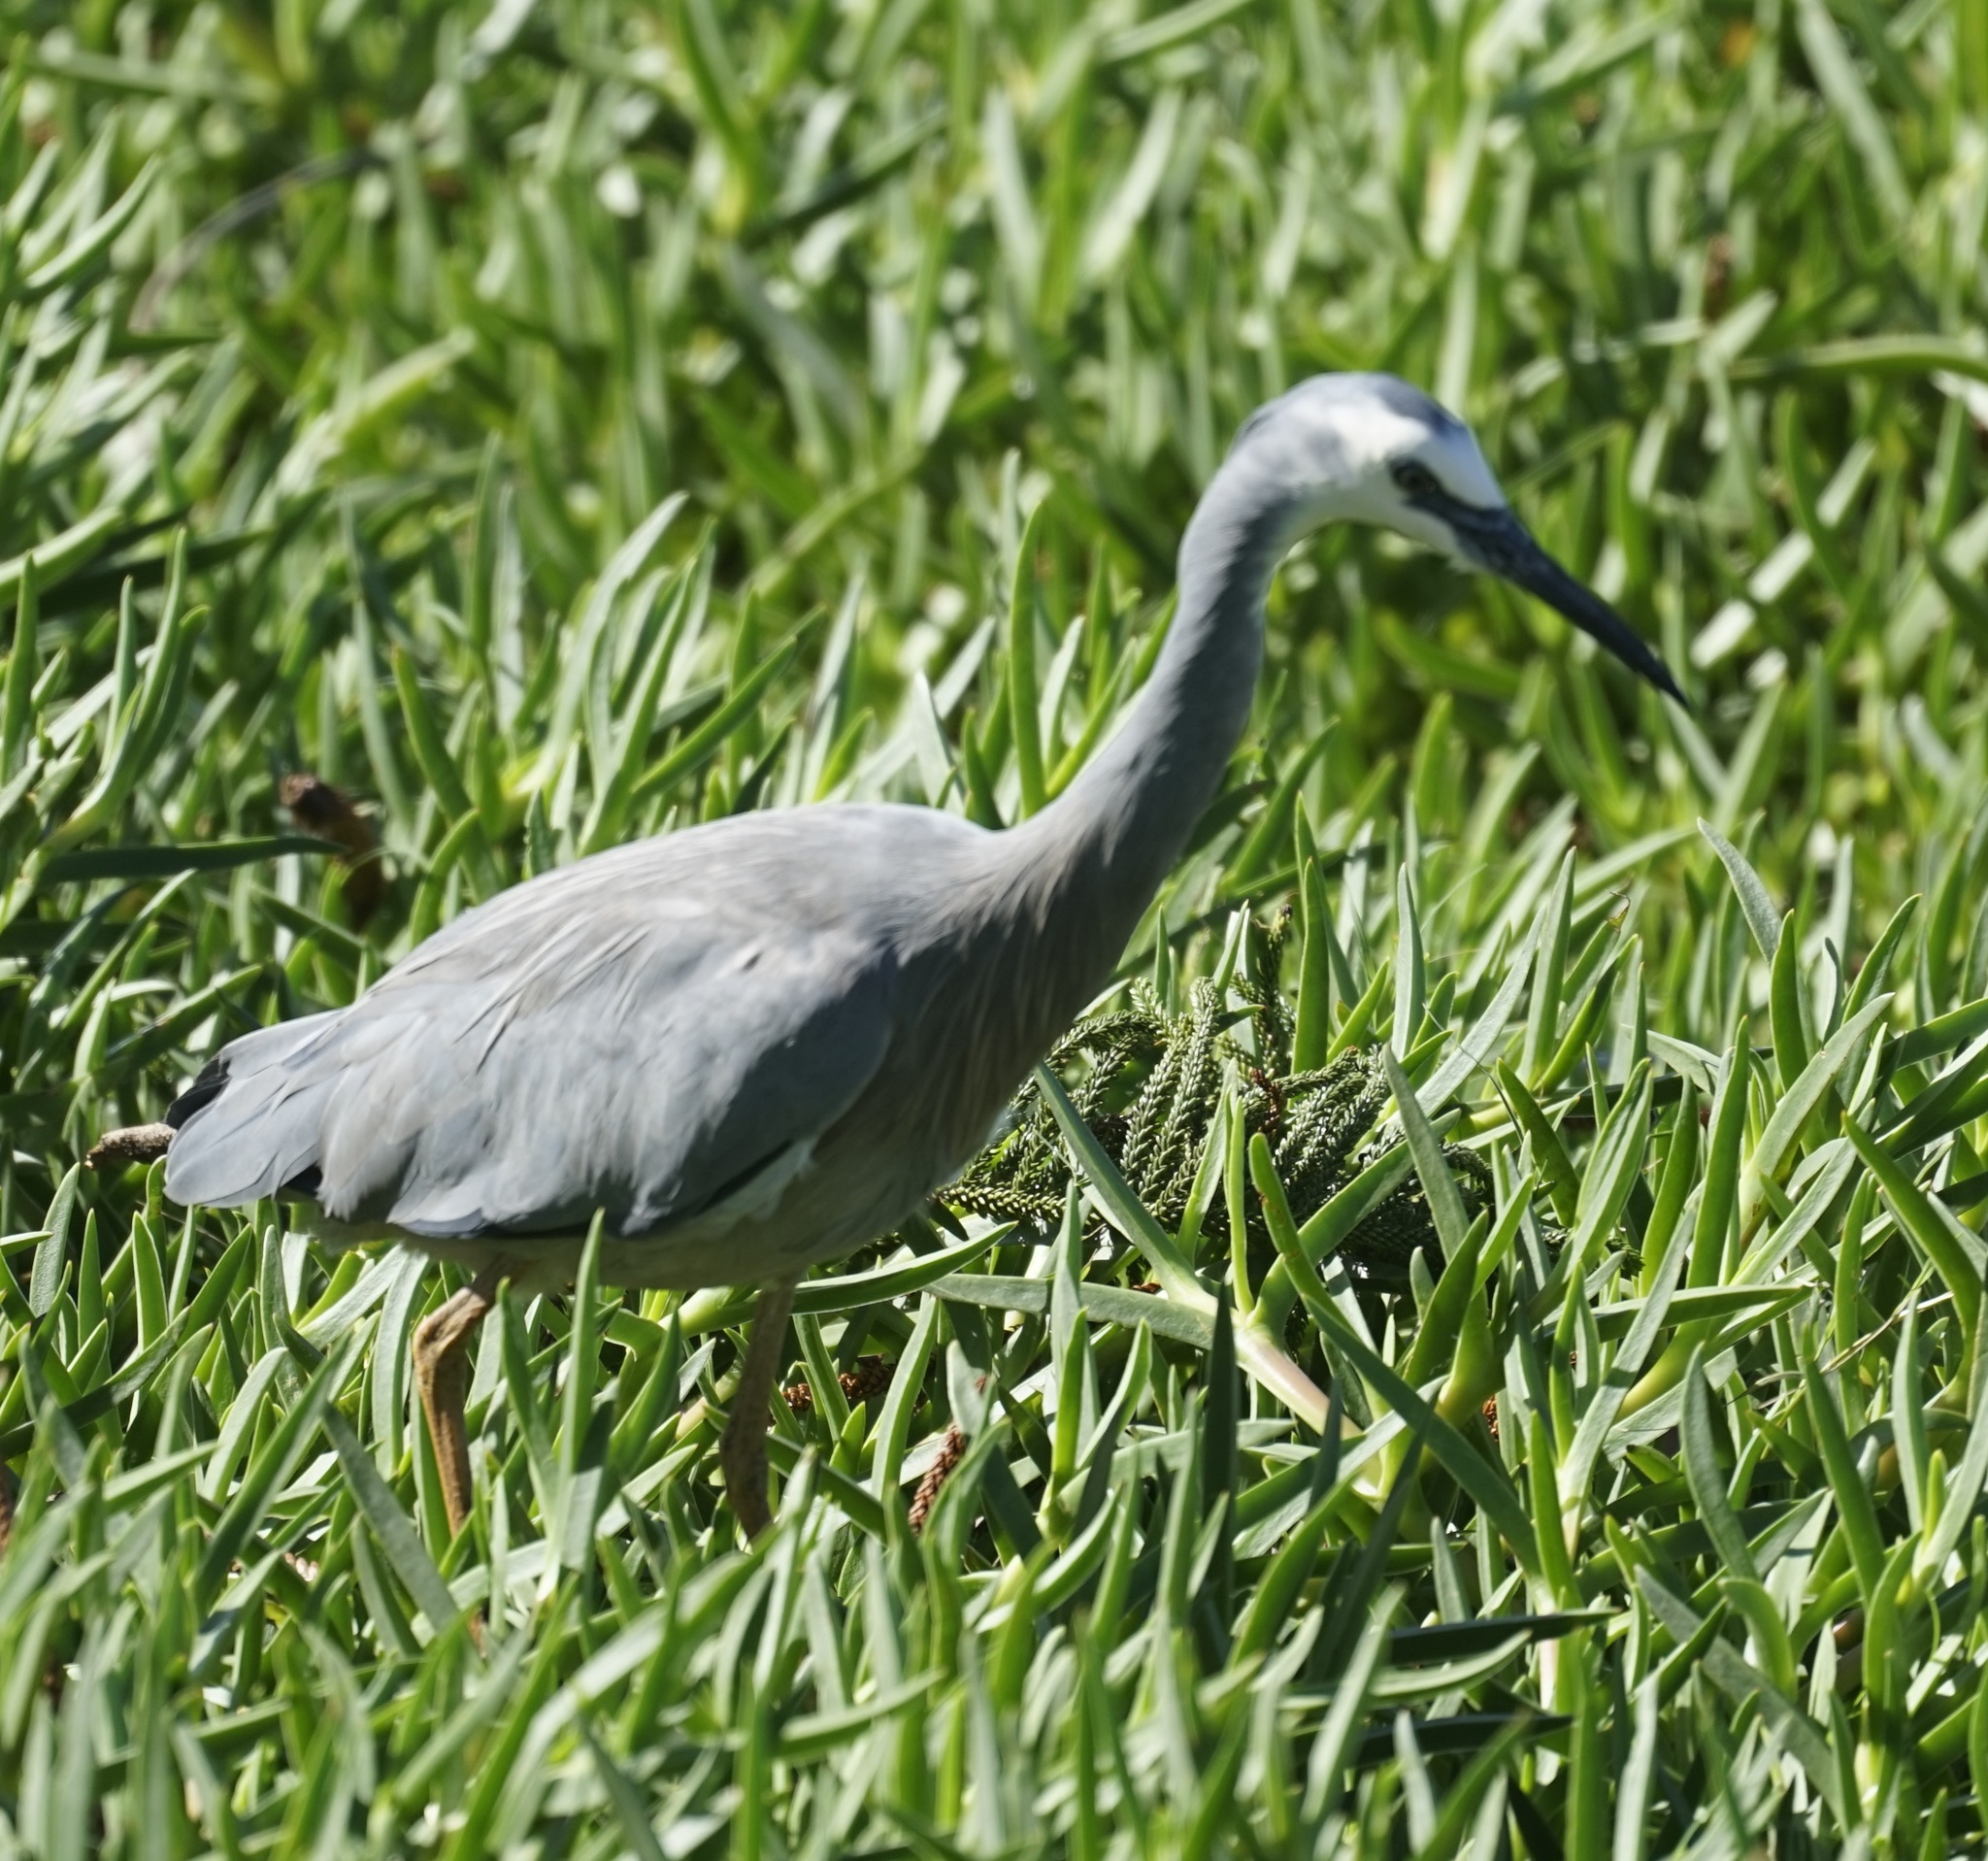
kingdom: Animalia
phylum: Chordata
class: Aves
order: Pelecaniformes
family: Ardeidae
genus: Egretta
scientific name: Egretta novaehollandiae
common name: White-faced heron
